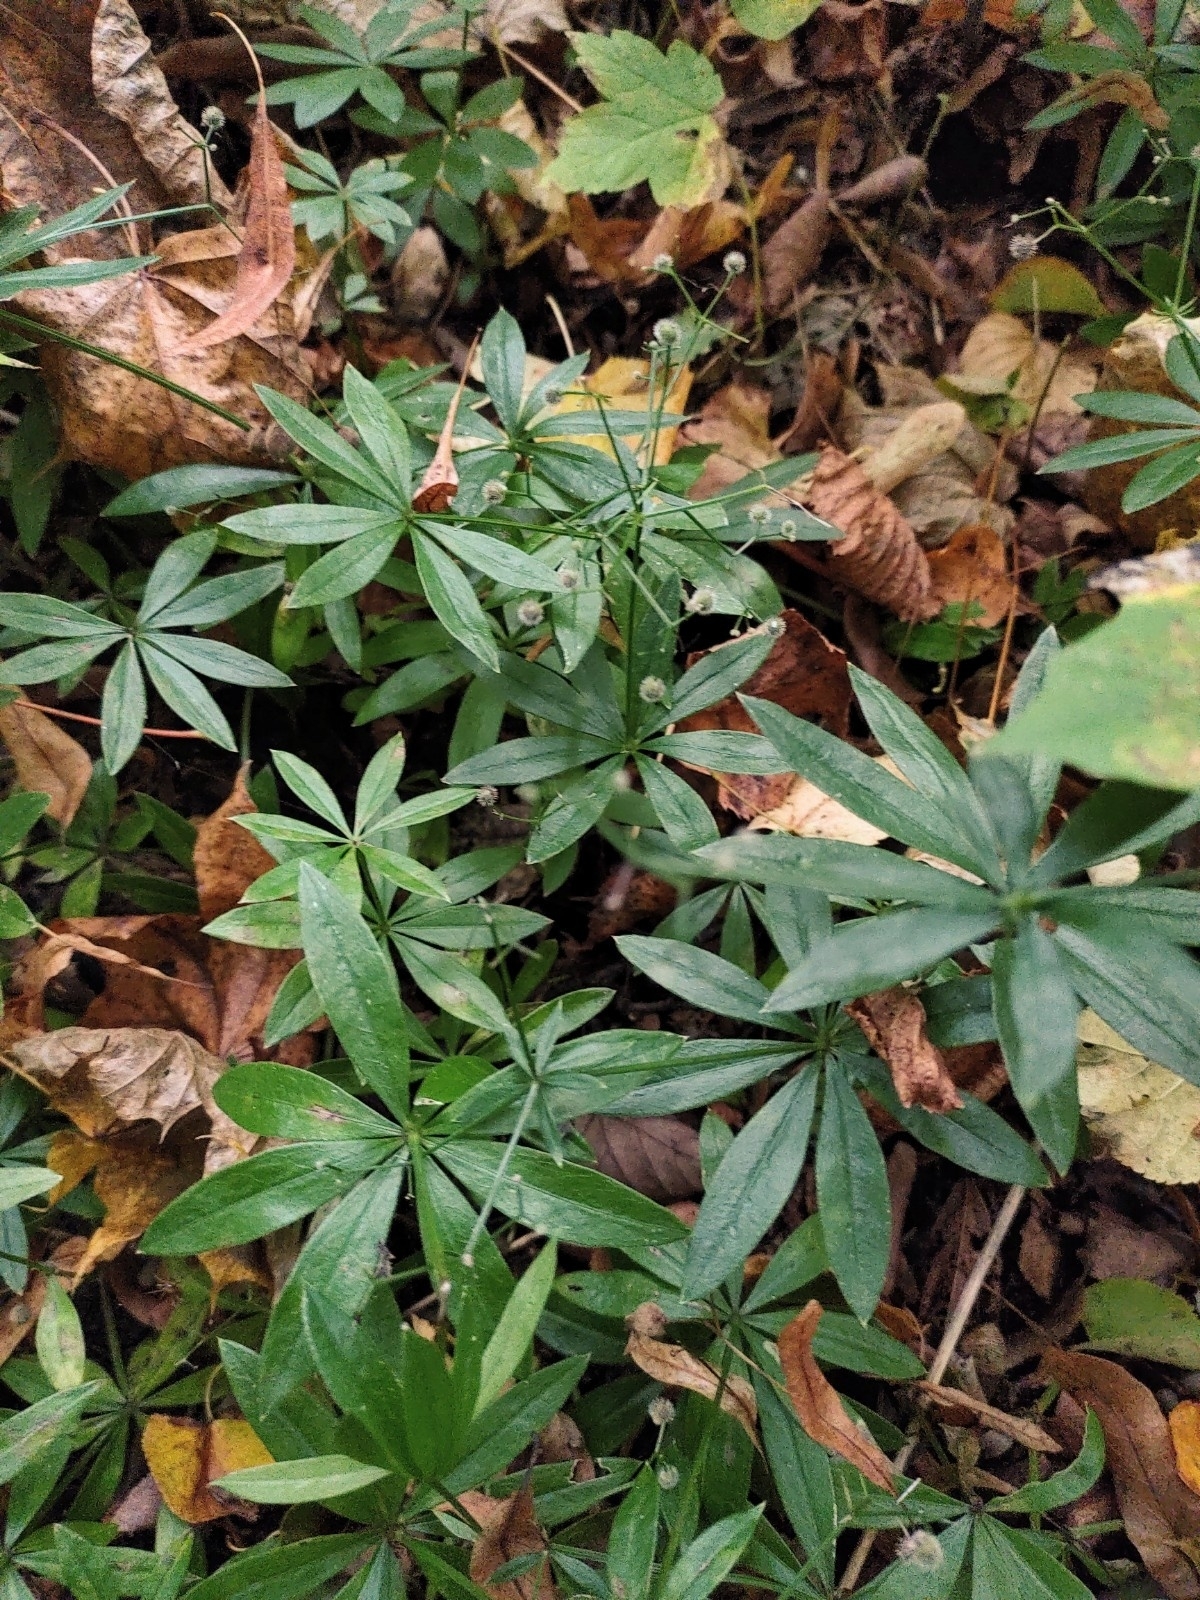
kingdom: Plantae
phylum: Tracheophyta
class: Magnoliopsida
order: Gentianales
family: Rubiaceae
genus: Galium
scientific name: Galium odoratum
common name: Sweet woodruff
